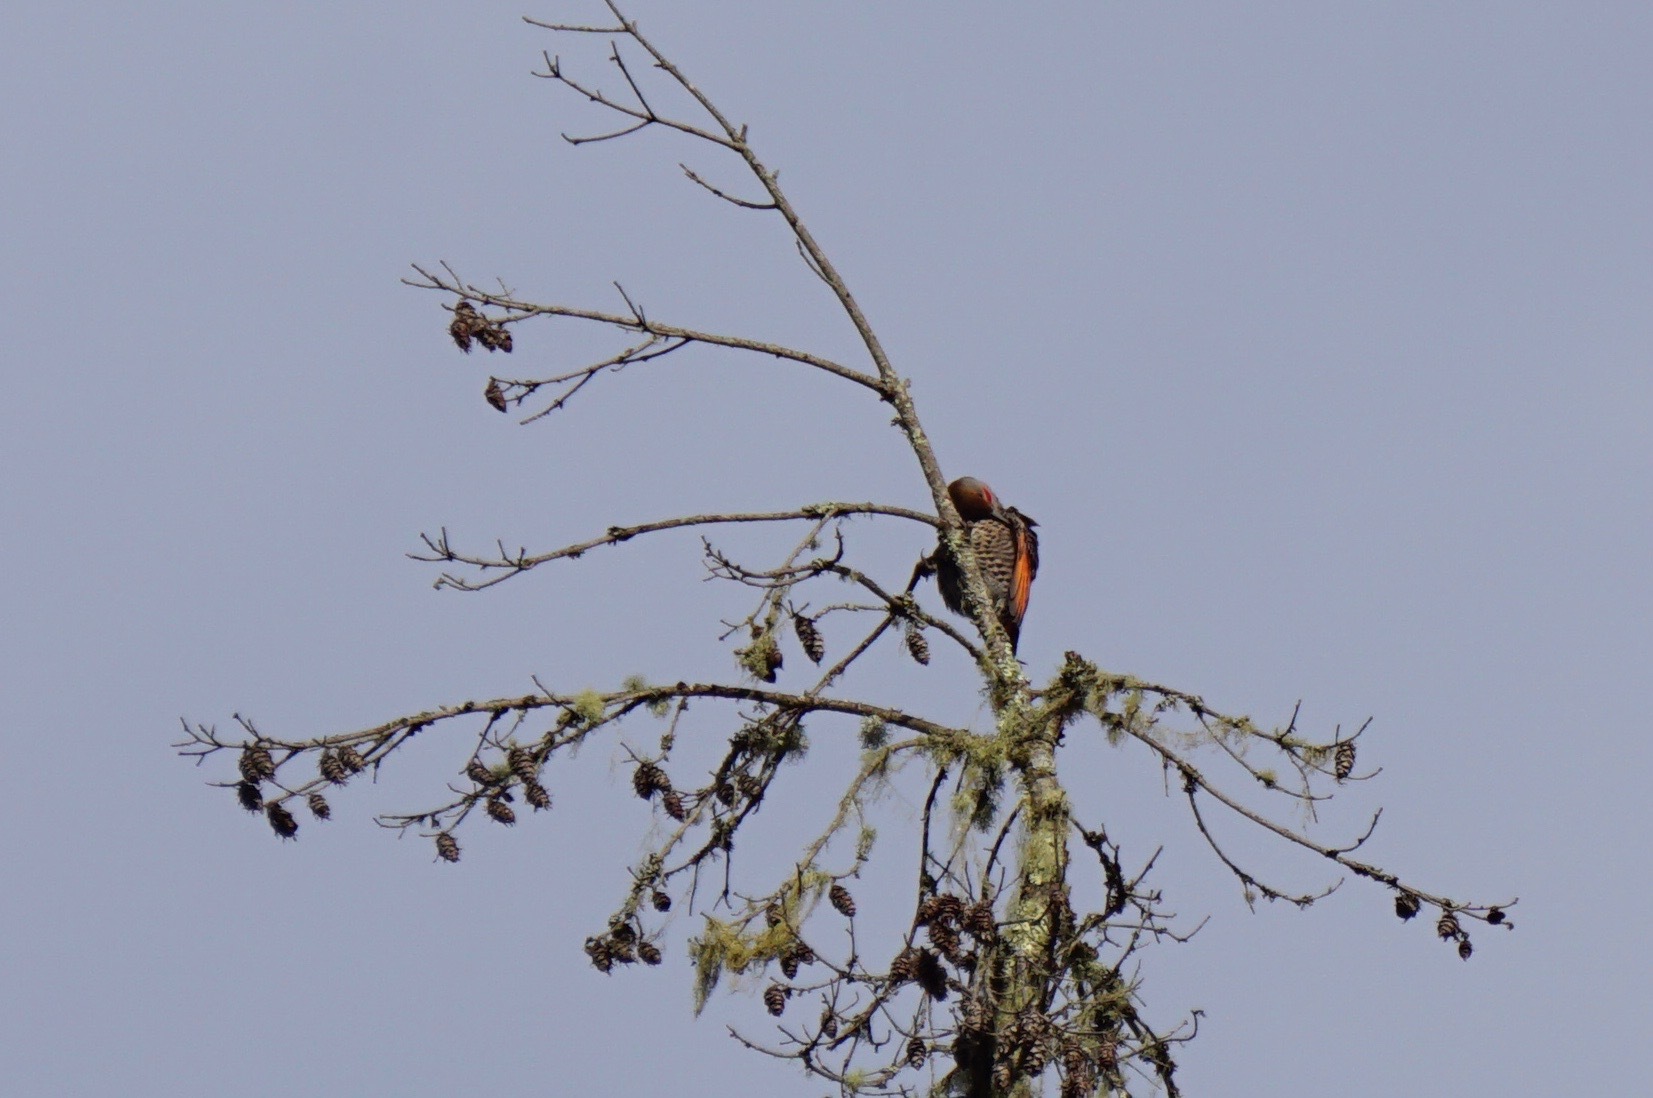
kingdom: Animalia
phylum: Chordata
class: Aves
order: Piciformes
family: Picidae
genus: Colaptes
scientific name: Colaptes auratus
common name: Northern flicker
